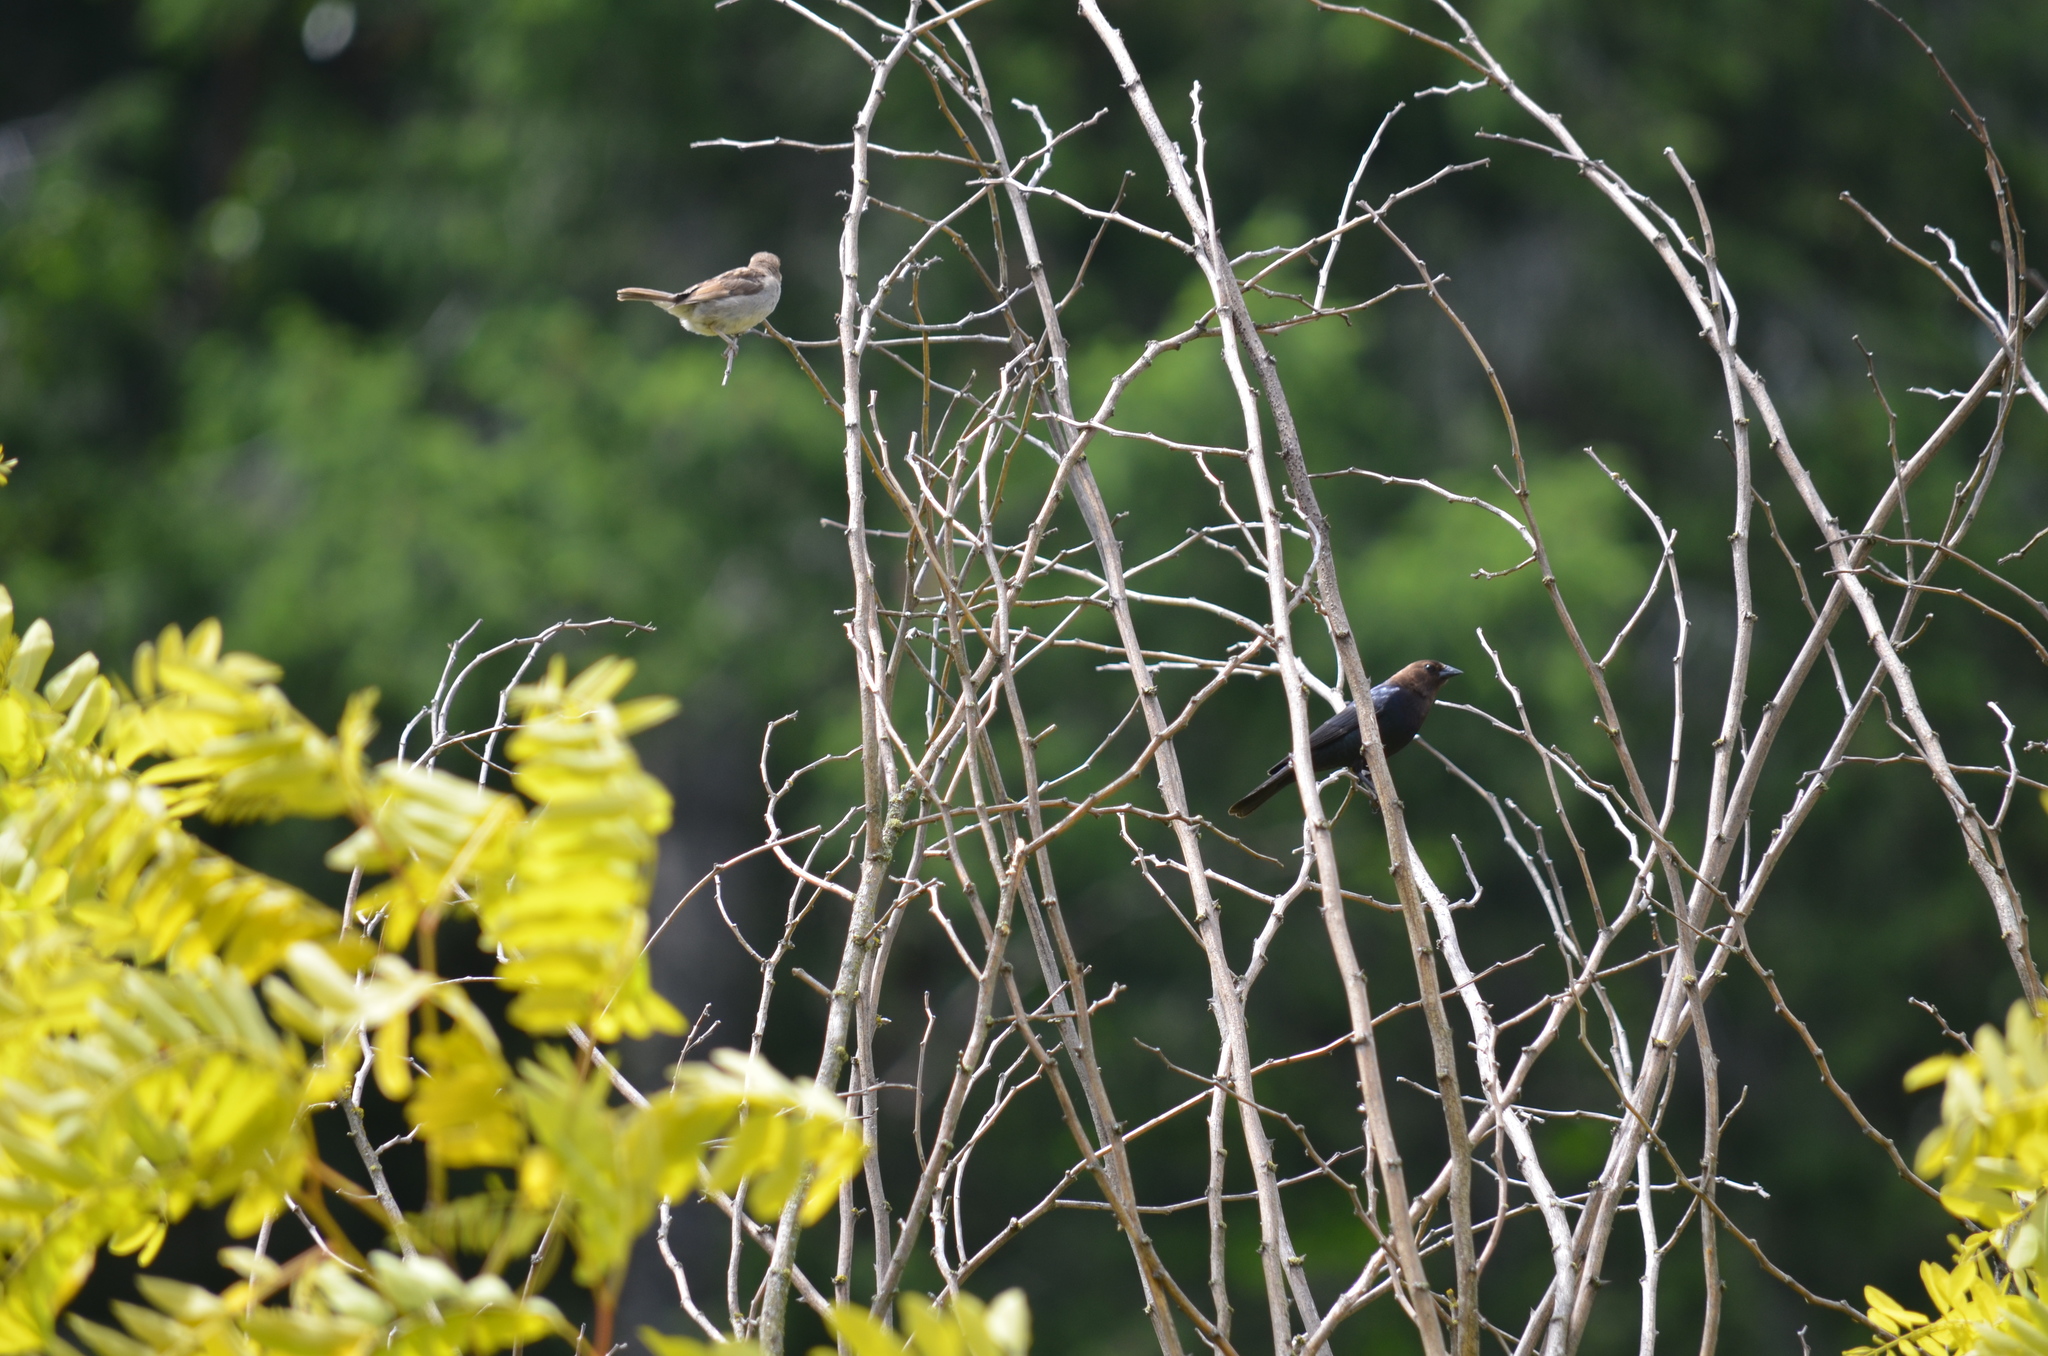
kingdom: Animalia
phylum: Chordata
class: Aves
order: Passeriformes
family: Icteridae
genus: Molothrus
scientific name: Molothrus ater
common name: Brown-headed cowbird
